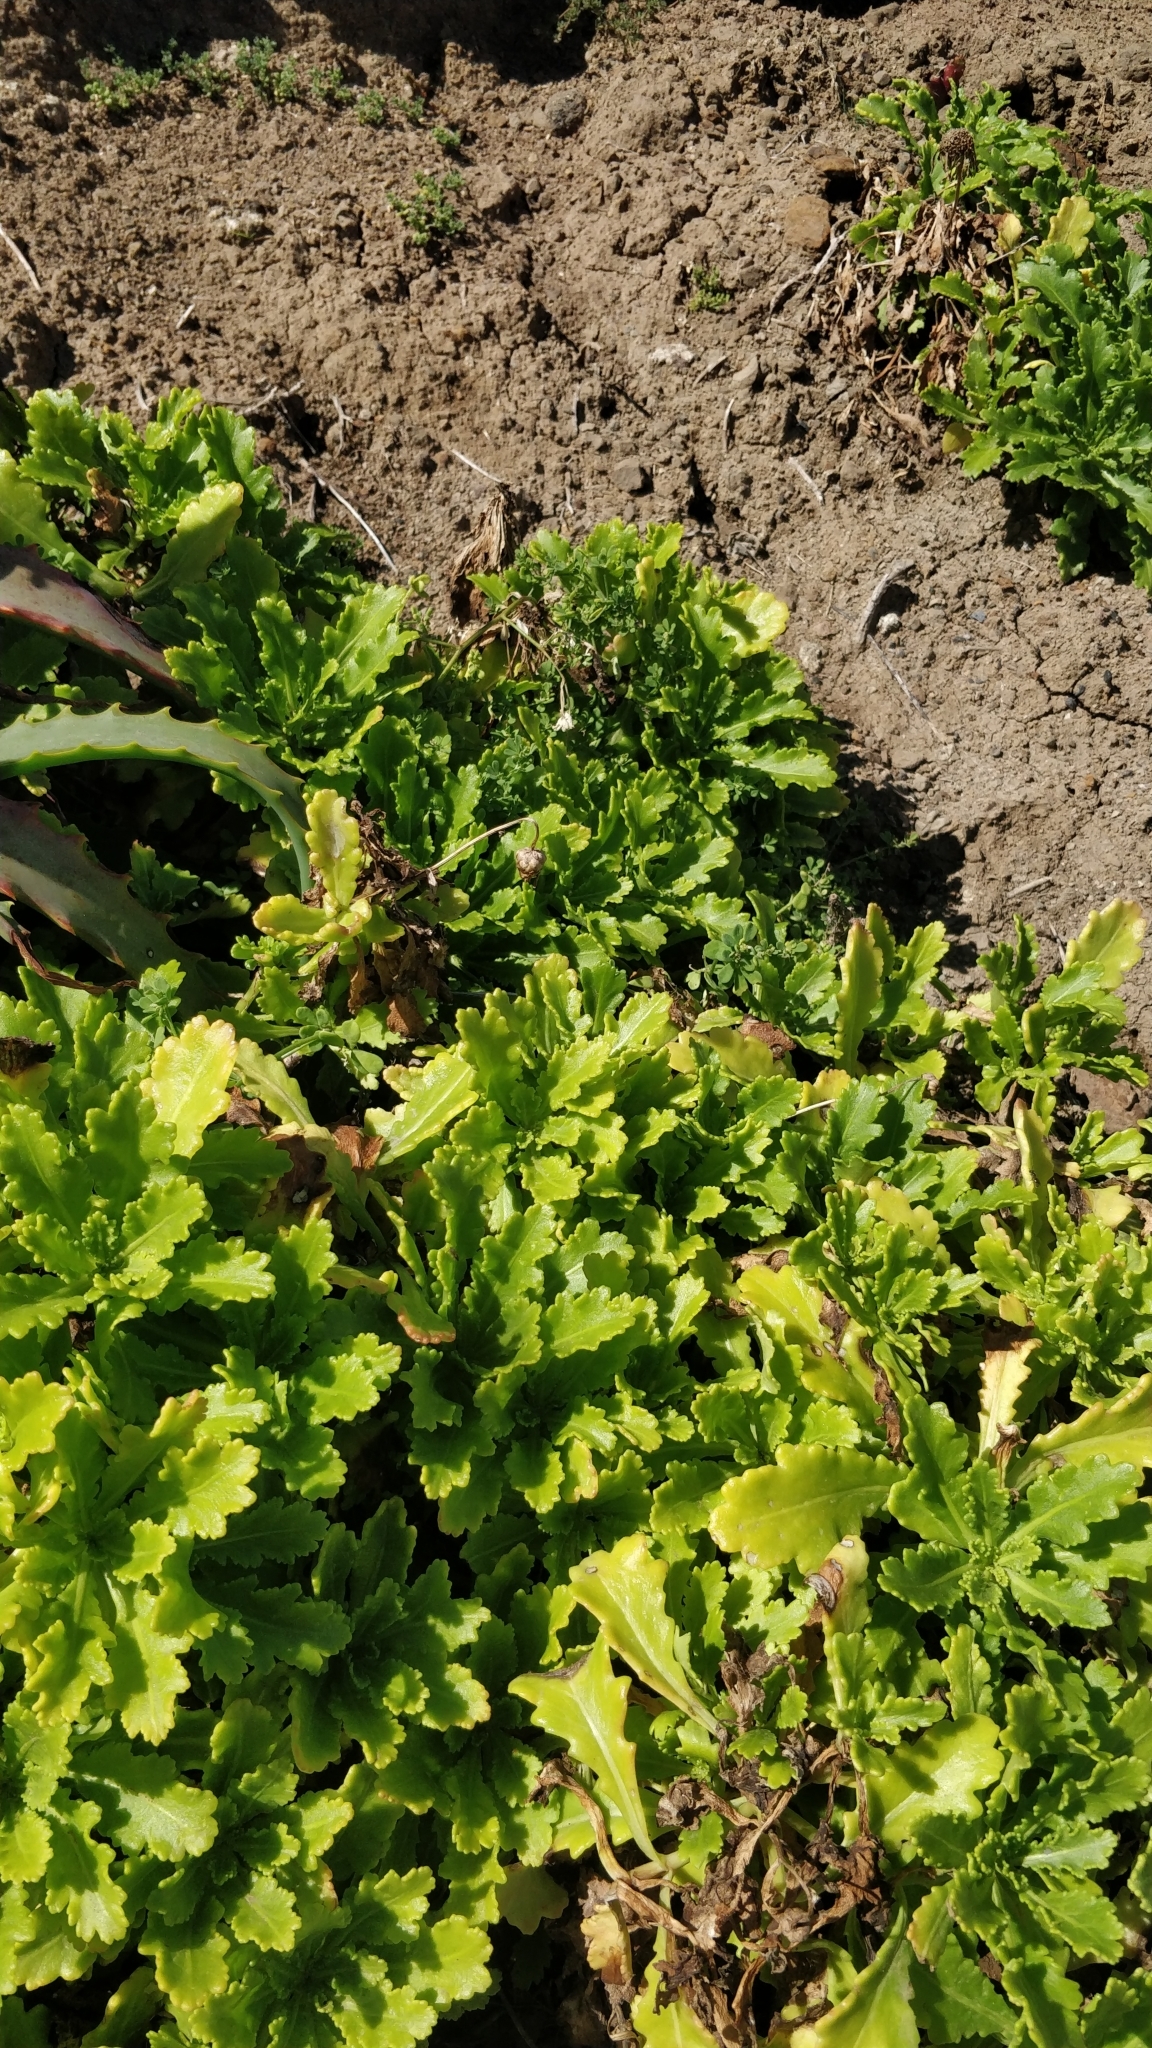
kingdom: Plantae
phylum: Tracheophyta
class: Magnoliopsida
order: Asterales
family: Asteraceae
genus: Argyranthemum
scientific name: Argyranthemum pinnatifidum
